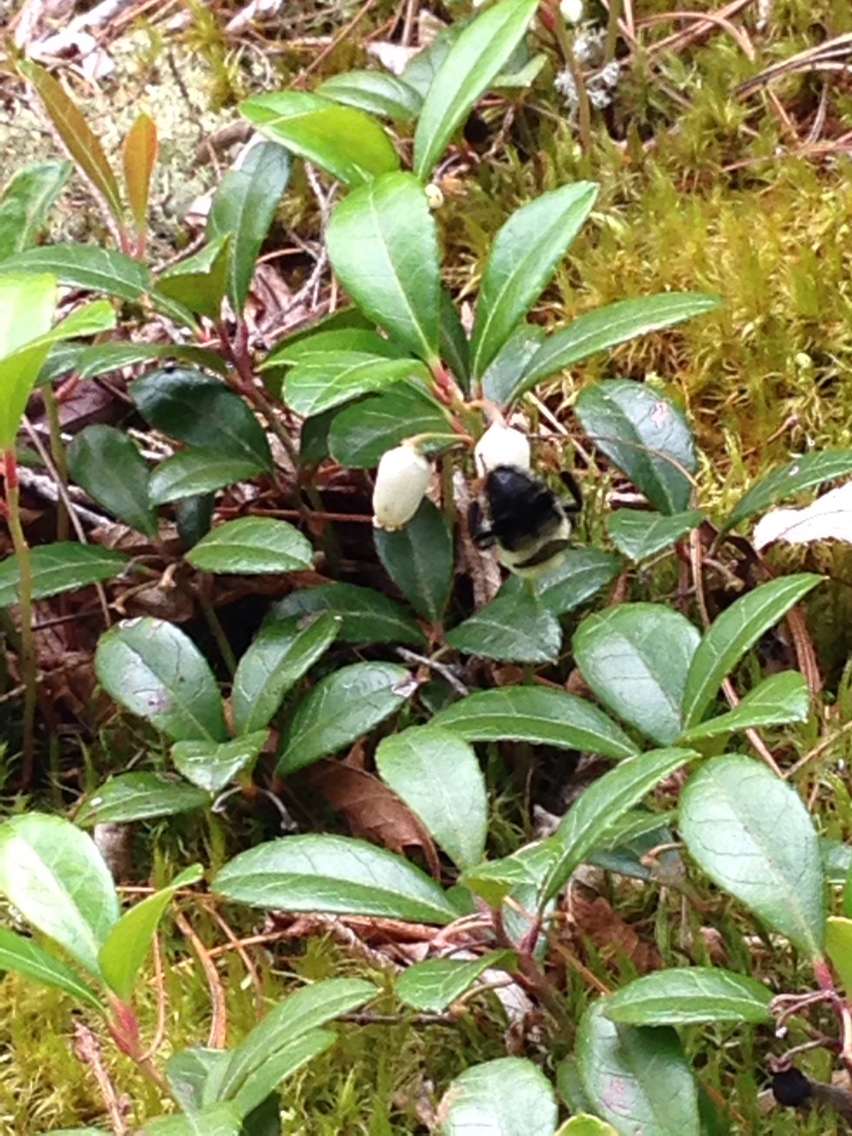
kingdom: Animalia
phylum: Arthropoda
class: Insecta
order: Hymenoptera
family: Apidae
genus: Bombus
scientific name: Bombus bimaculatus
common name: Two-spotted bumble bee
